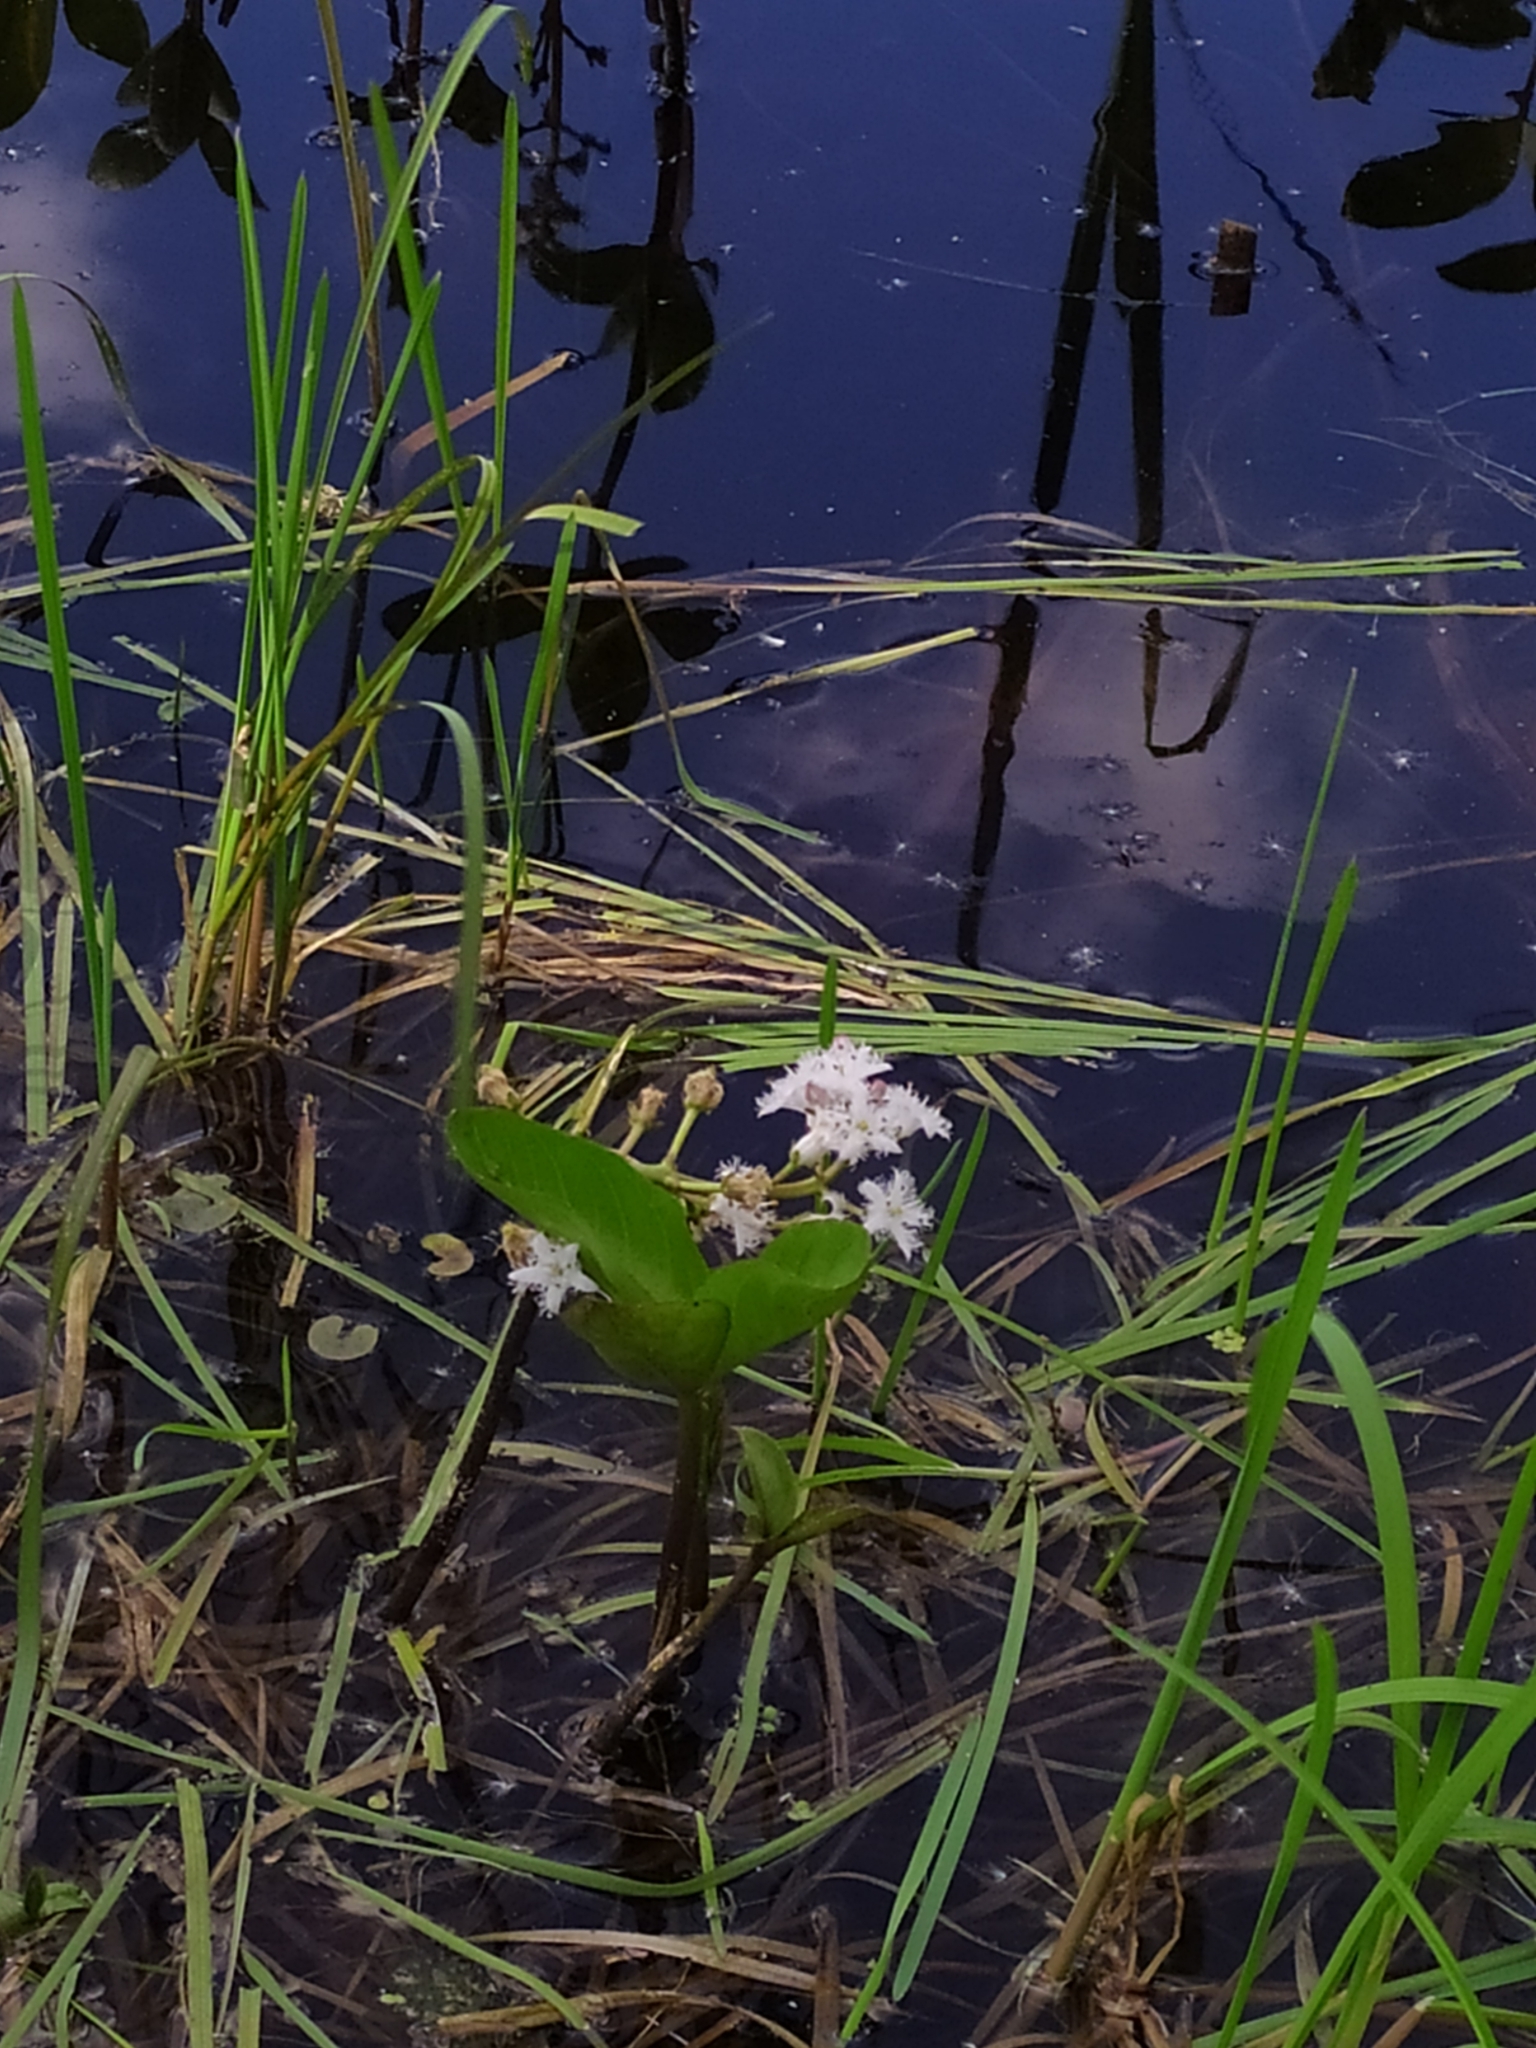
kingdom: Plantae
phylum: Tracheophyta
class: Magnoliopsida
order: Asterales
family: Menyanthaceae
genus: Menyanthes
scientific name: Menyanthes trifoliata
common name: Bogbean
